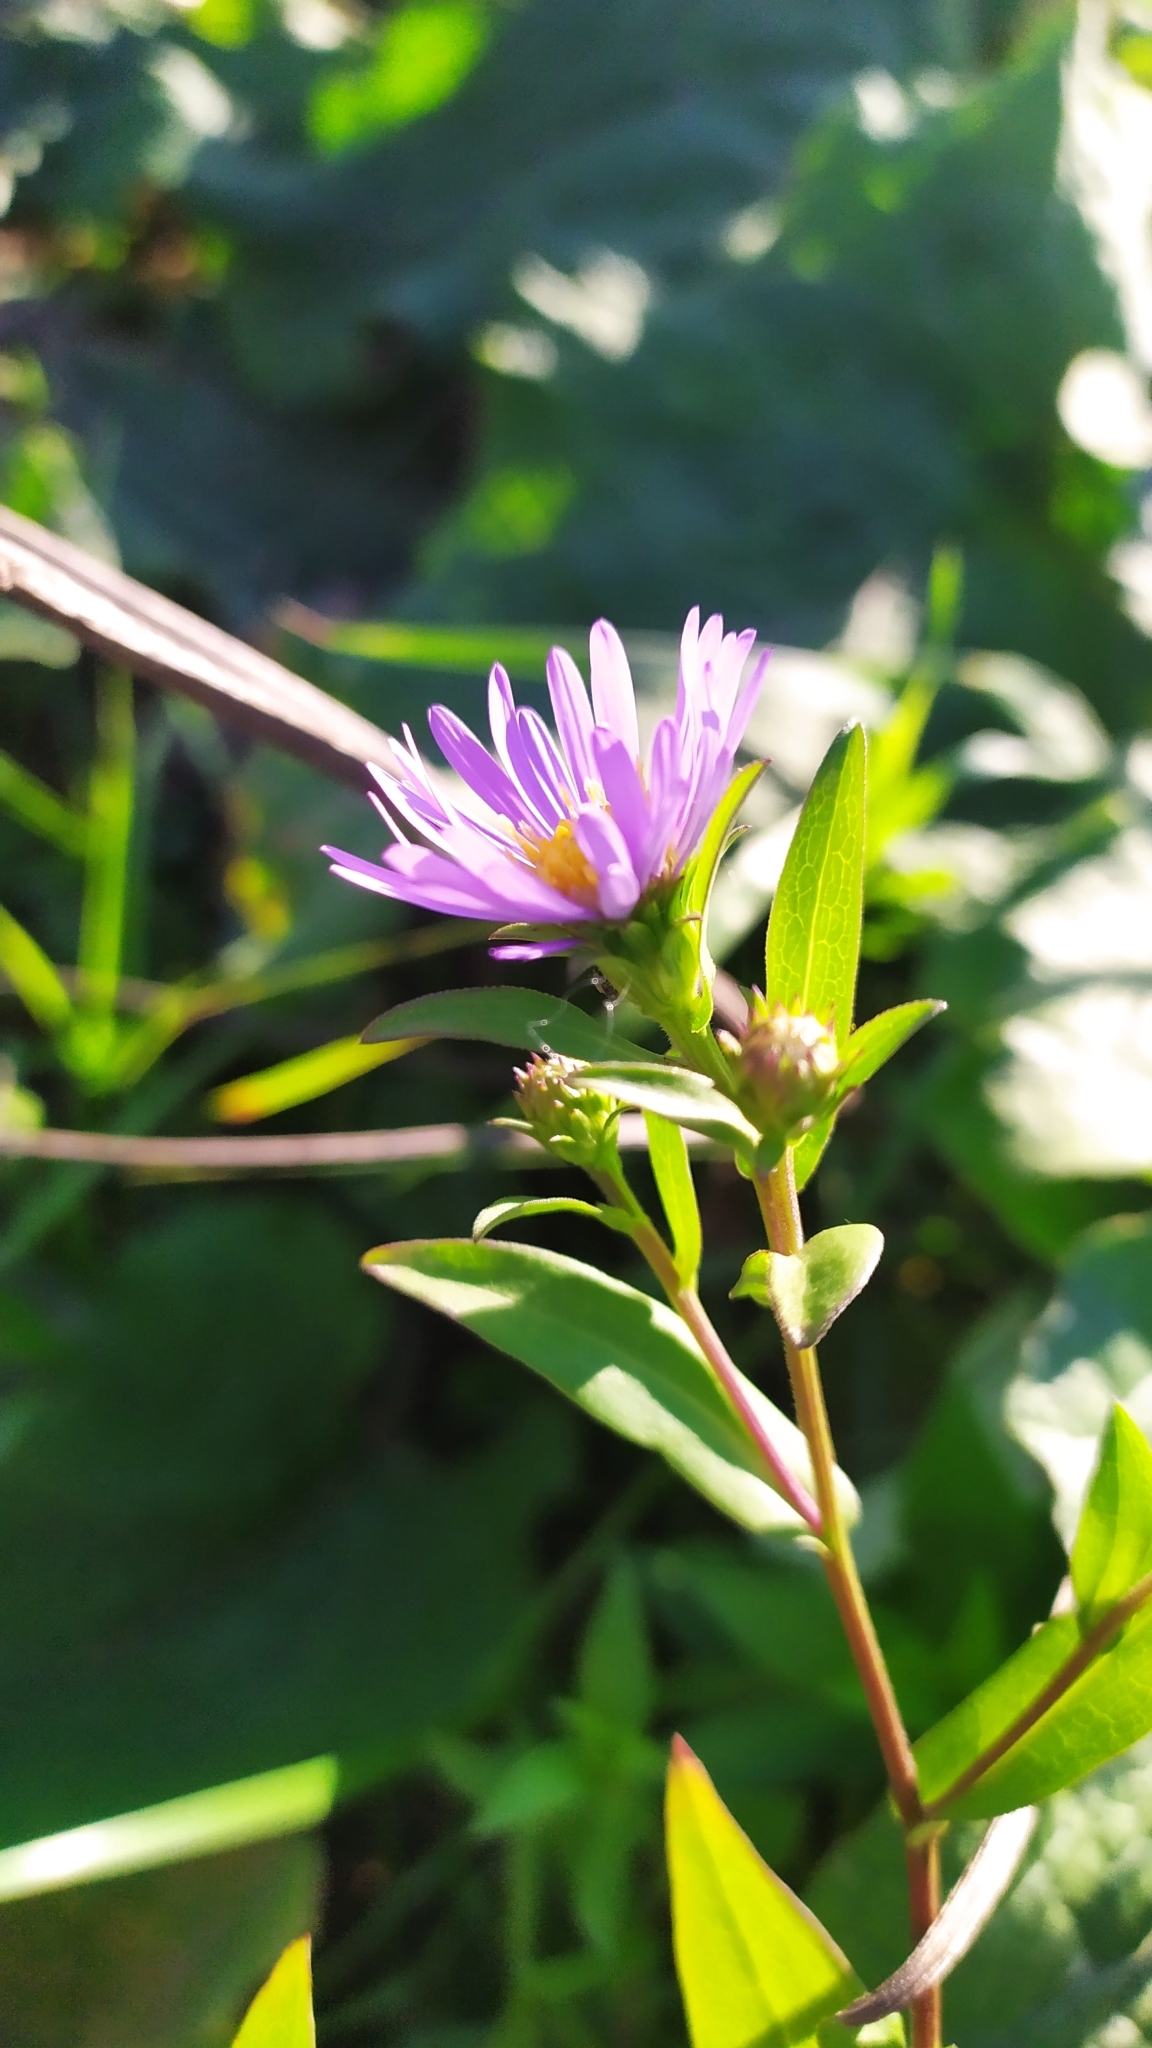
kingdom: Plantae
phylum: Tracheophyta
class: Magnoliopsida
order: Asterales
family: Asteraceae
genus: Symphyotrichum
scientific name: Symphyotrichum novi-belgii
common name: Michaelmas daisy
